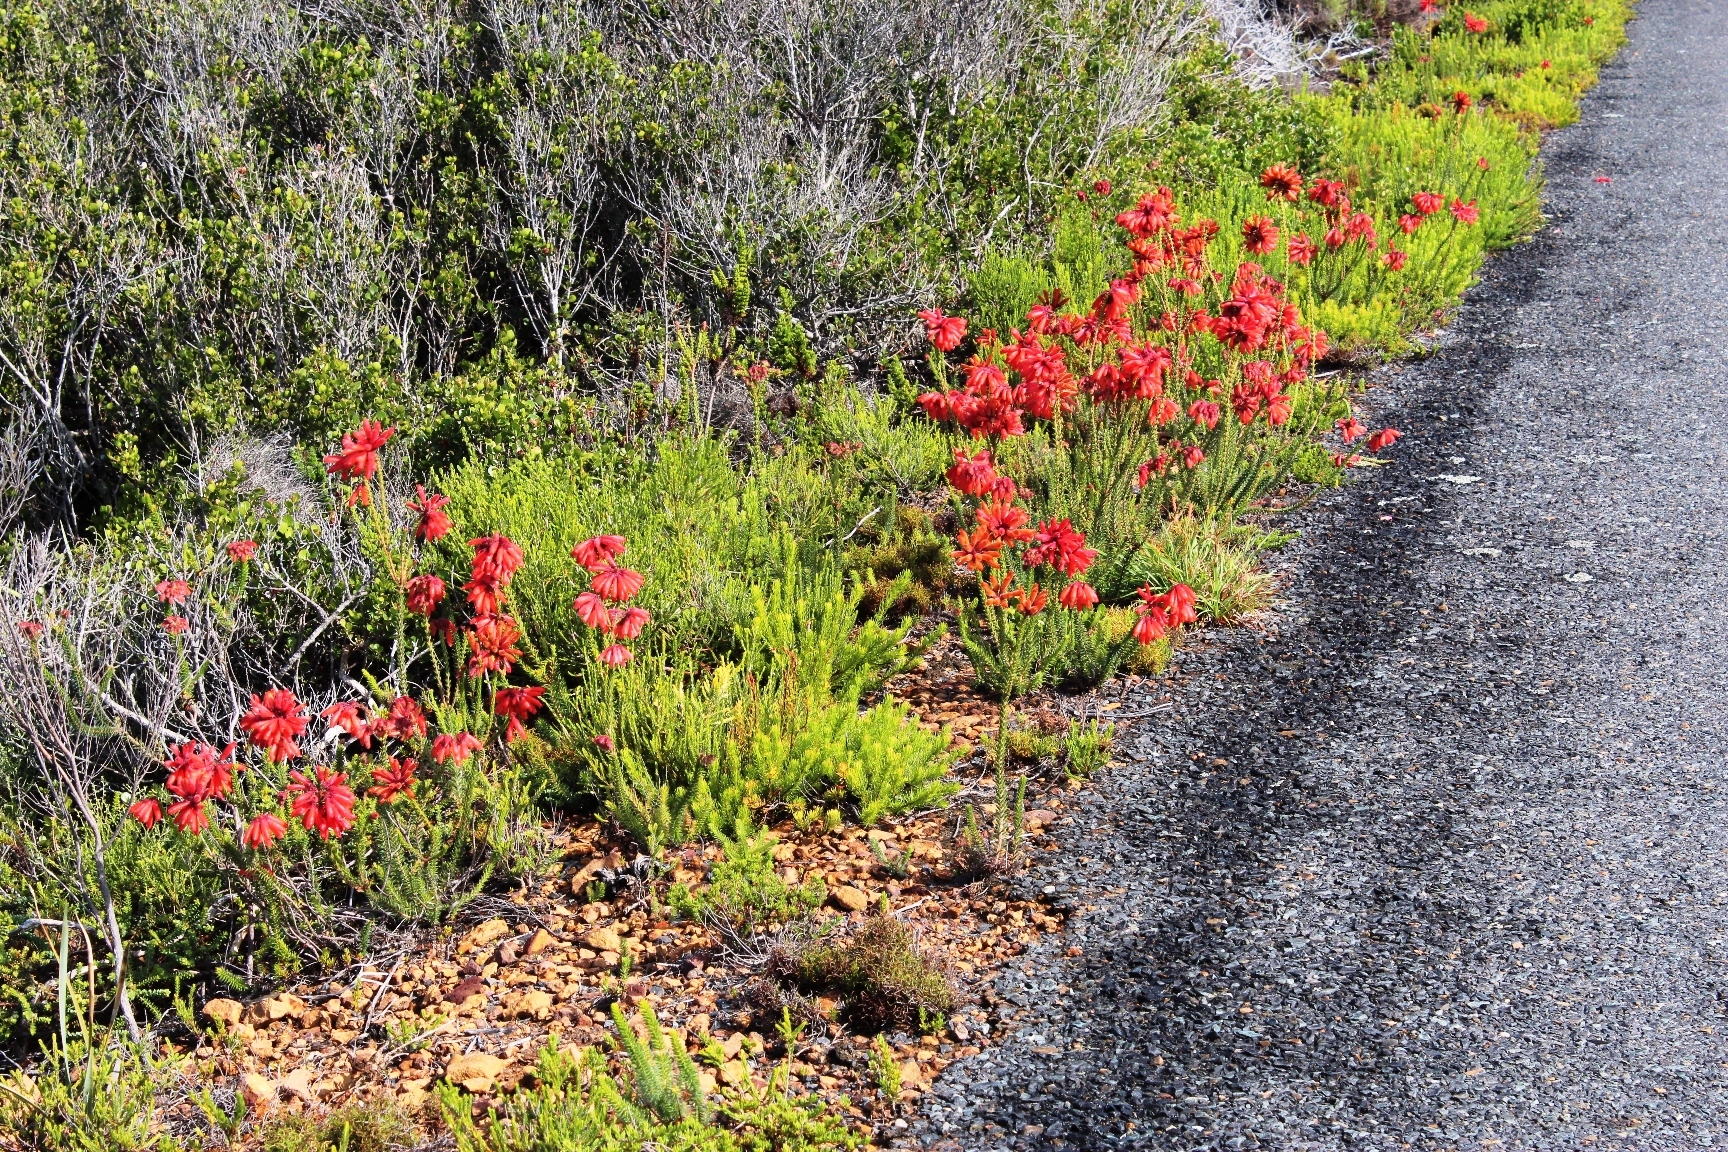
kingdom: Plantae
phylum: Tracheophyta
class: Magnoliopsida
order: Ericales
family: Ericaceae
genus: Erica
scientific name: Erica cerinthoides
